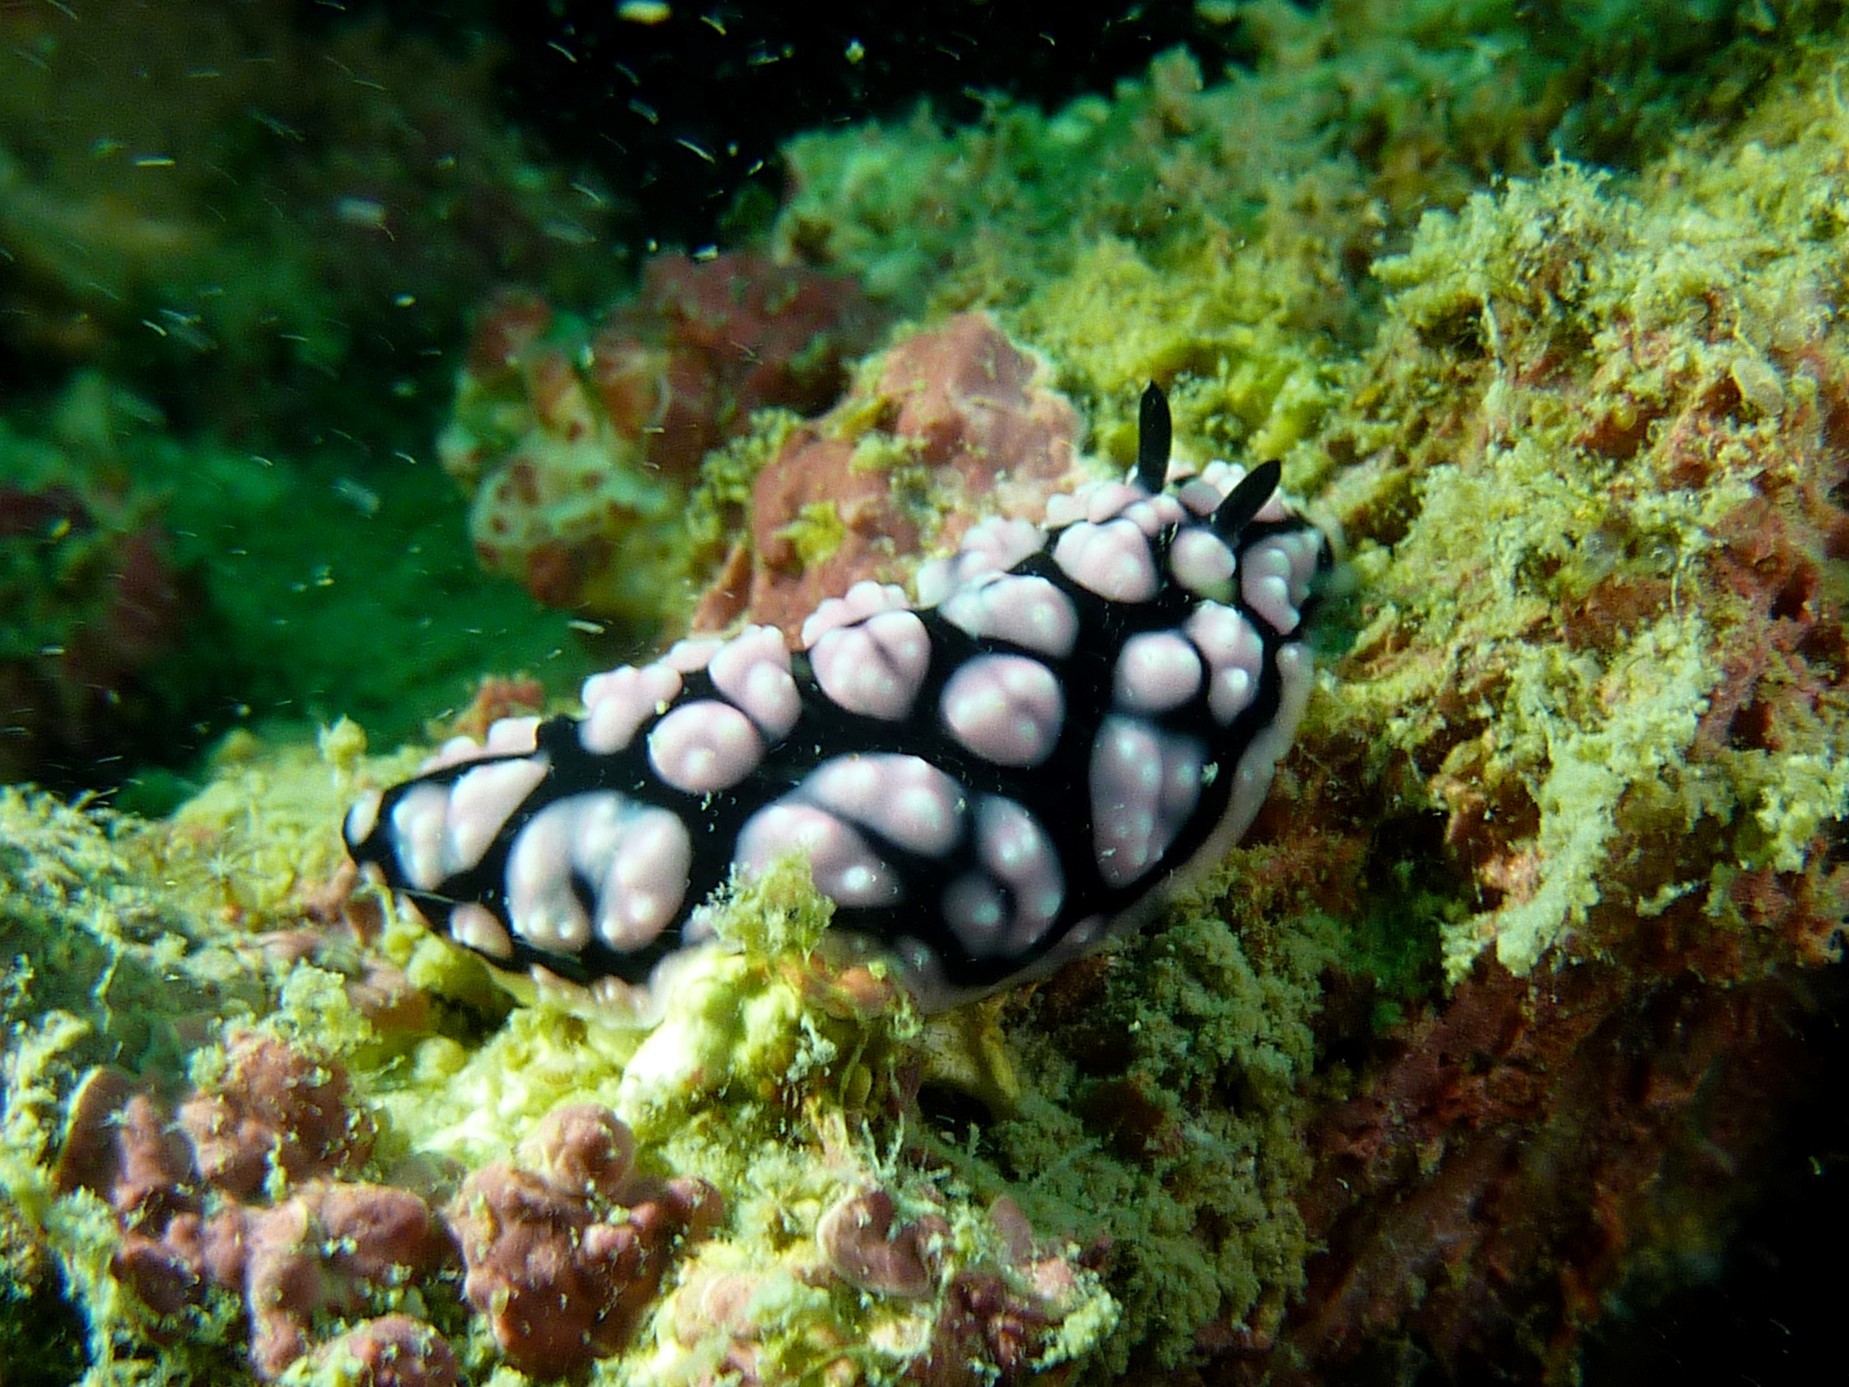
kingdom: Animalia
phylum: Mollusca
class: Gastropoda
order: Nudibranchia
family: Phyllidiidae
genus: Phyllidiella
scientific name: Phyllidiella pustulosa
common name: Pustular phyllidia
